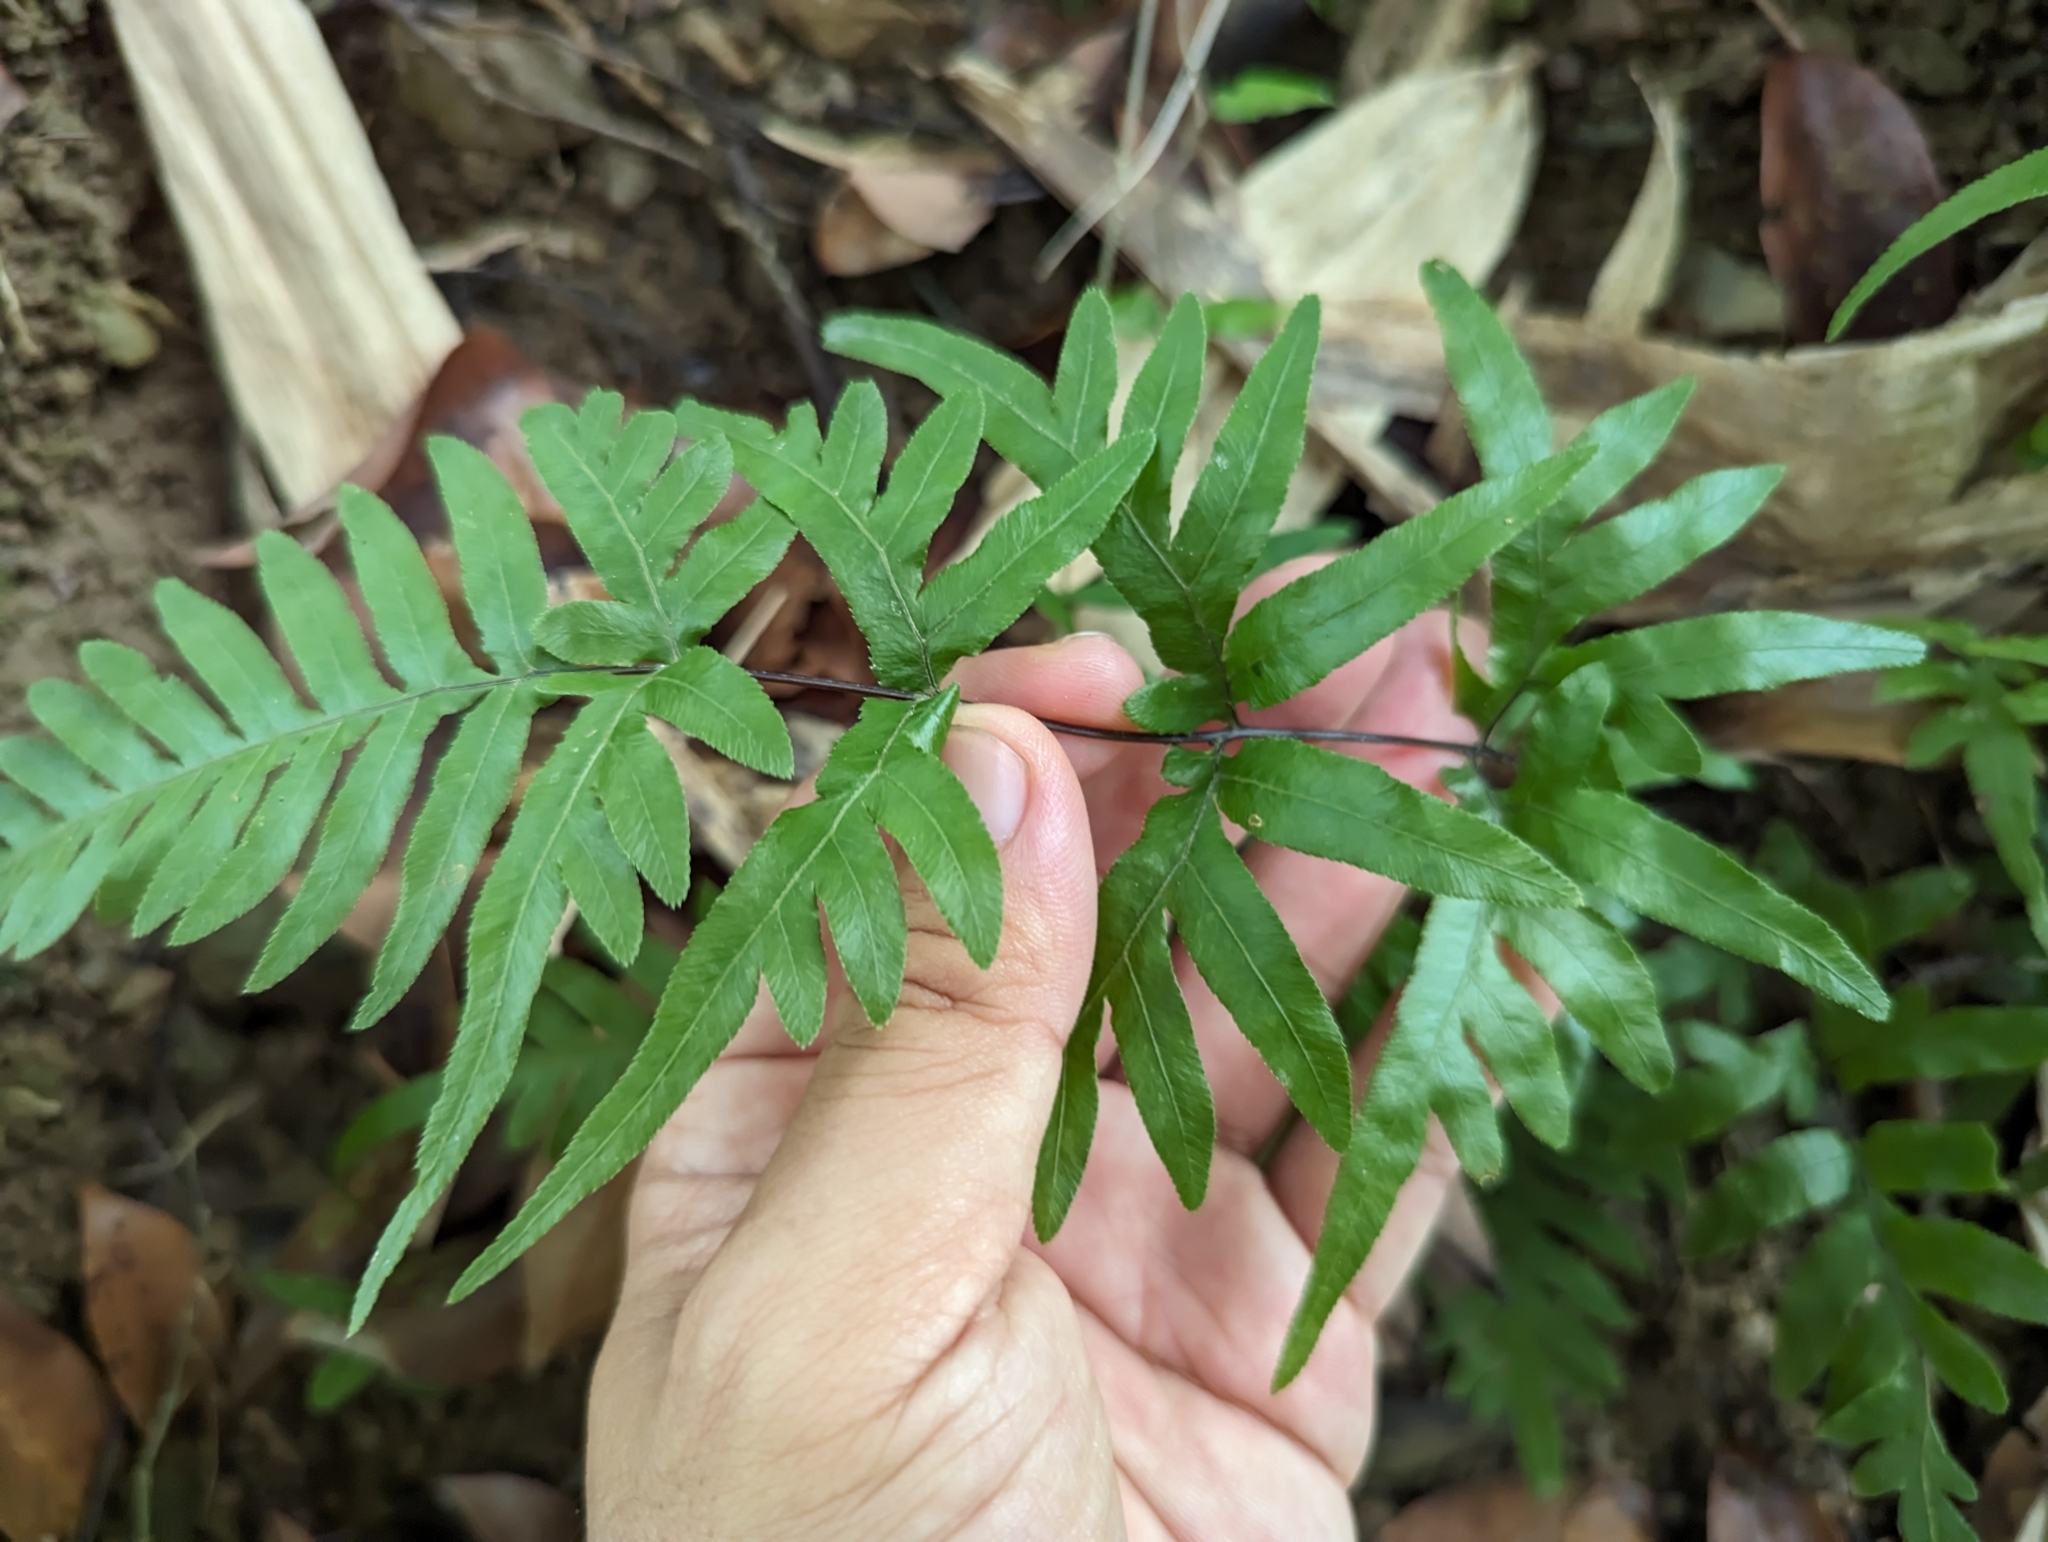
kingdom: Plantae
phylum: Tracheophyta
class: Polypodiopsida
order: Polypodiales
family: Pteridaceae
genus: Pteris
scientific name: Pteris dispar
